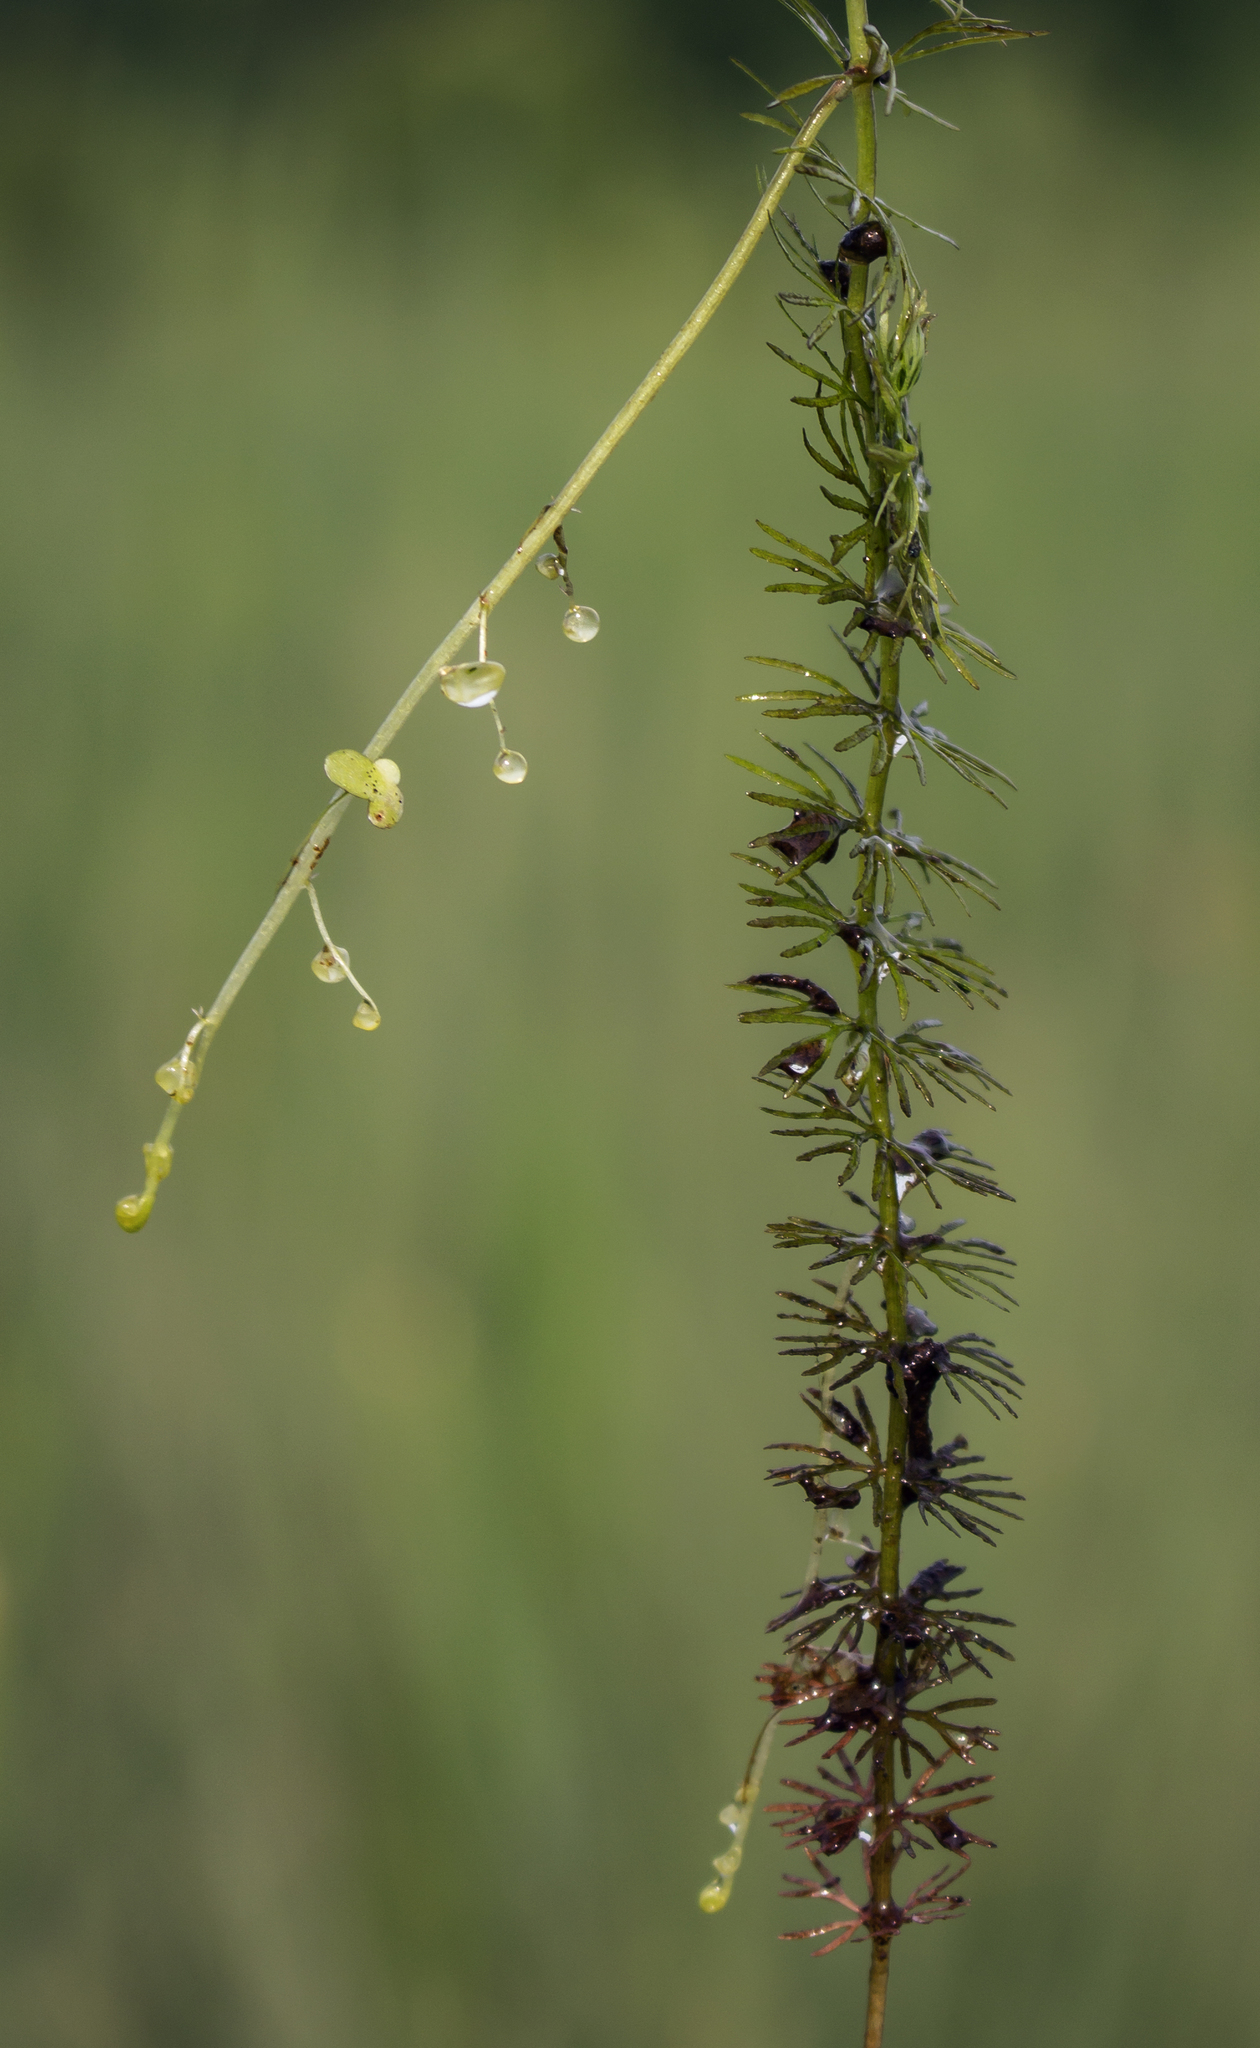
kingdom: Plantae
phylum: Tracheophyta
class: Magnoliopsida
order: Lamiales
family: Lentibulariaceae
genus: Utricularia
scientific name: Utricularia intermedia
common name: Intermediate bladderwort
